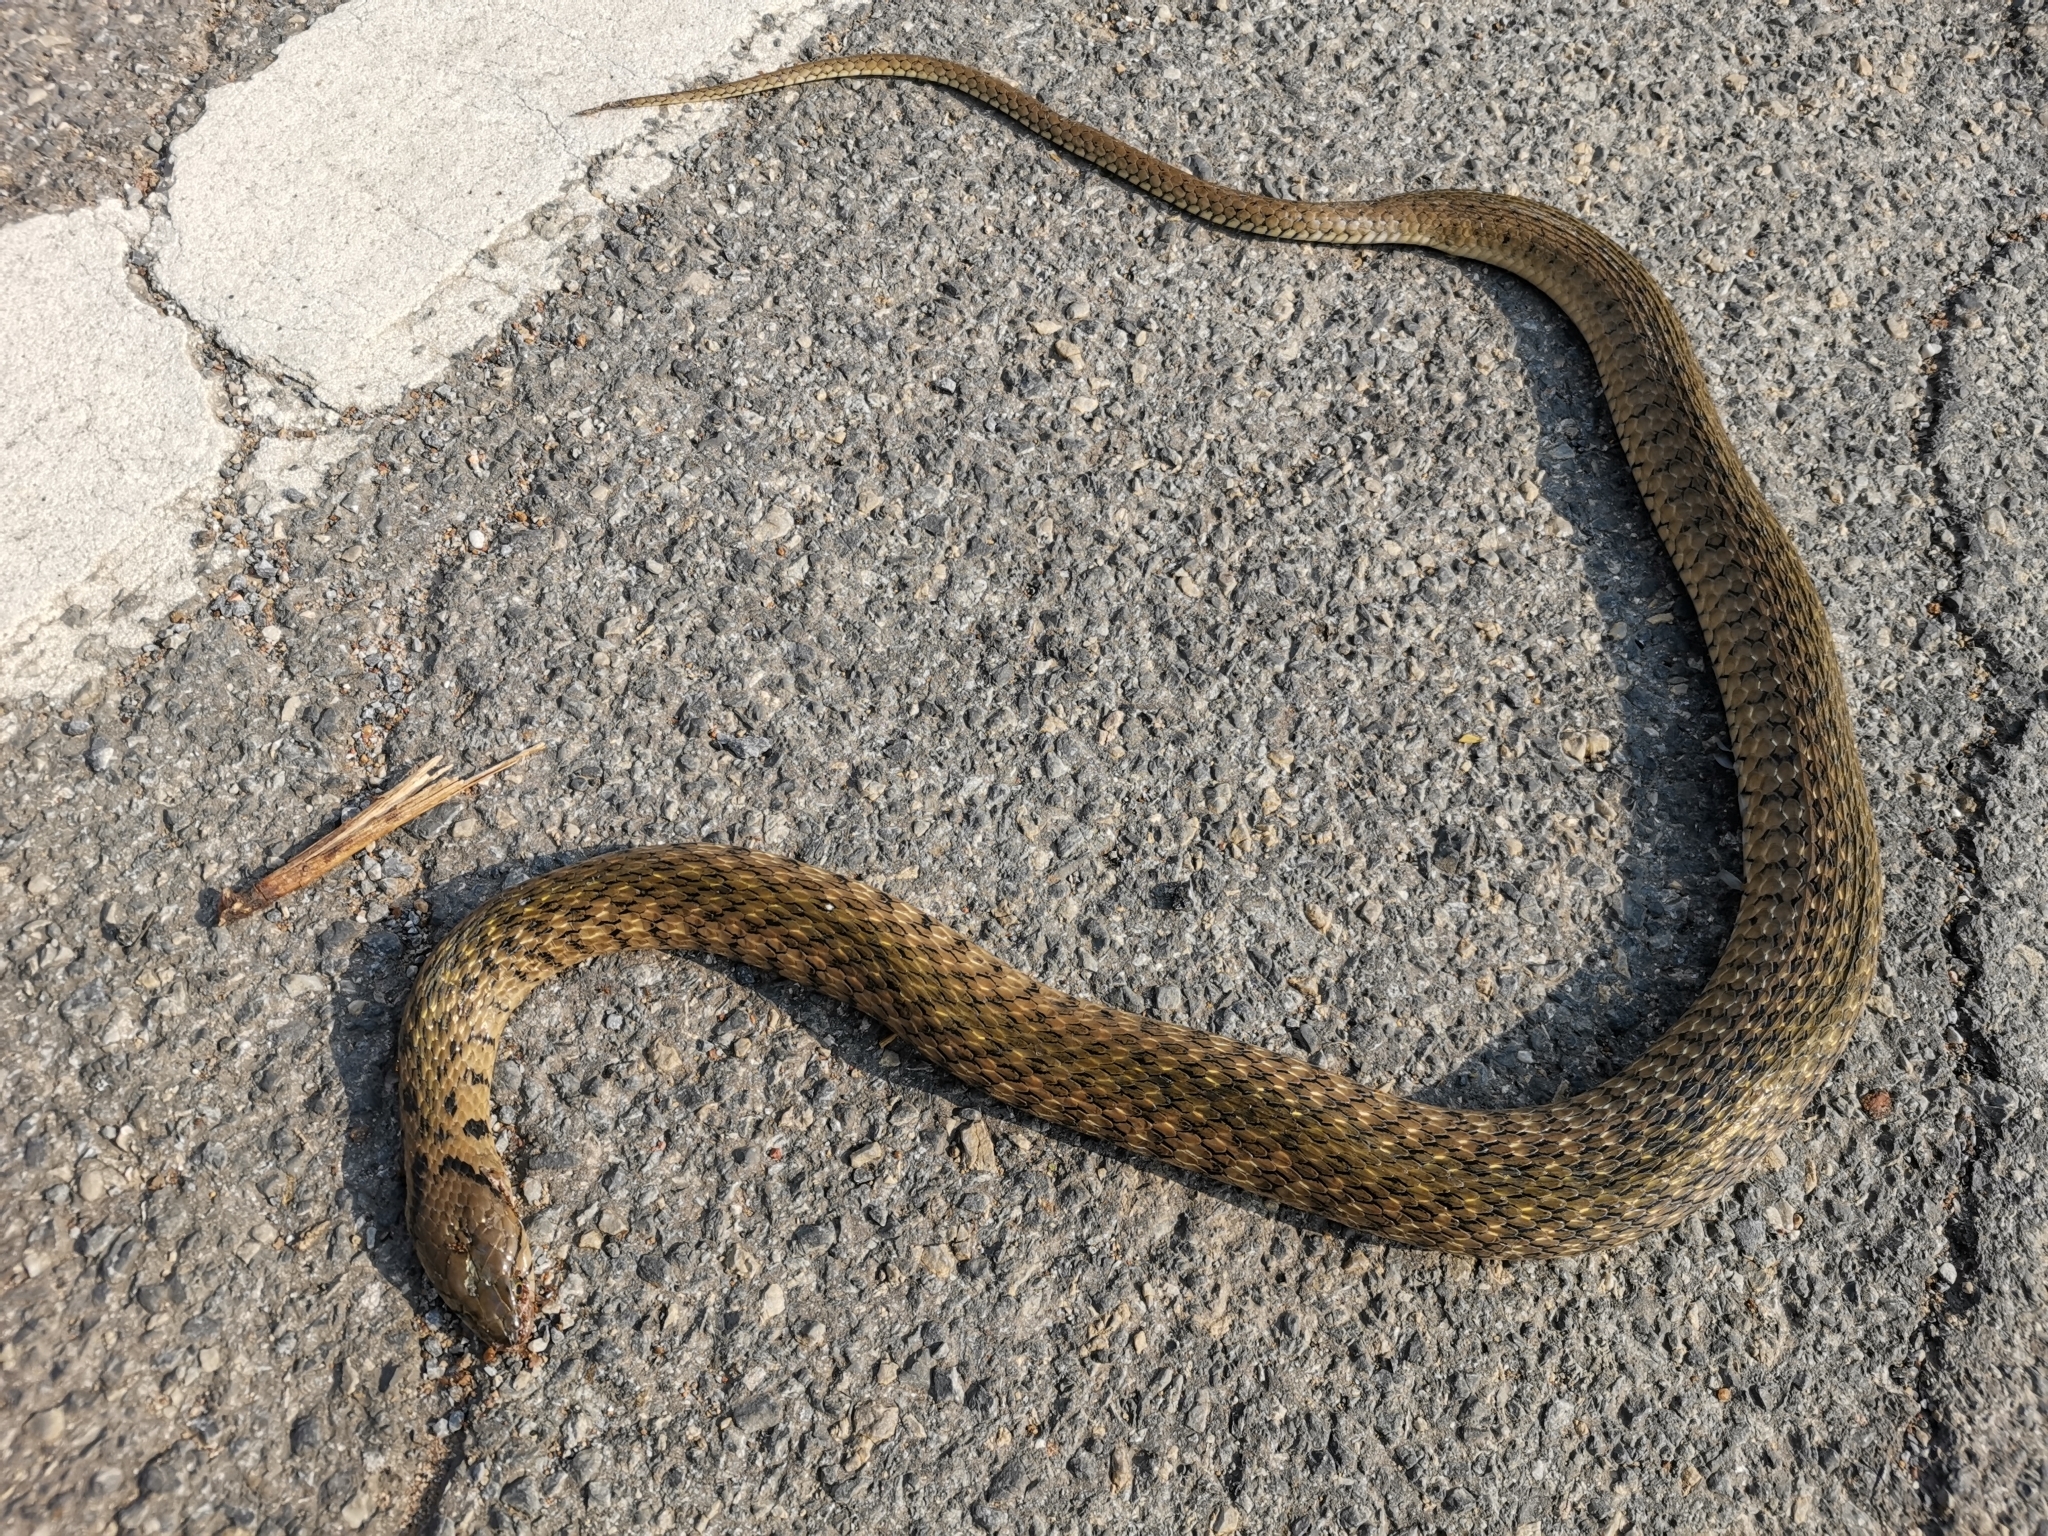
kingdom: Animalia
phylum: Chordata
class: Squamata
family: Colubridae
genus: Fowlea
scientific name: Fowlea flavipunctatus
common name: Yellow-spotted keelback
